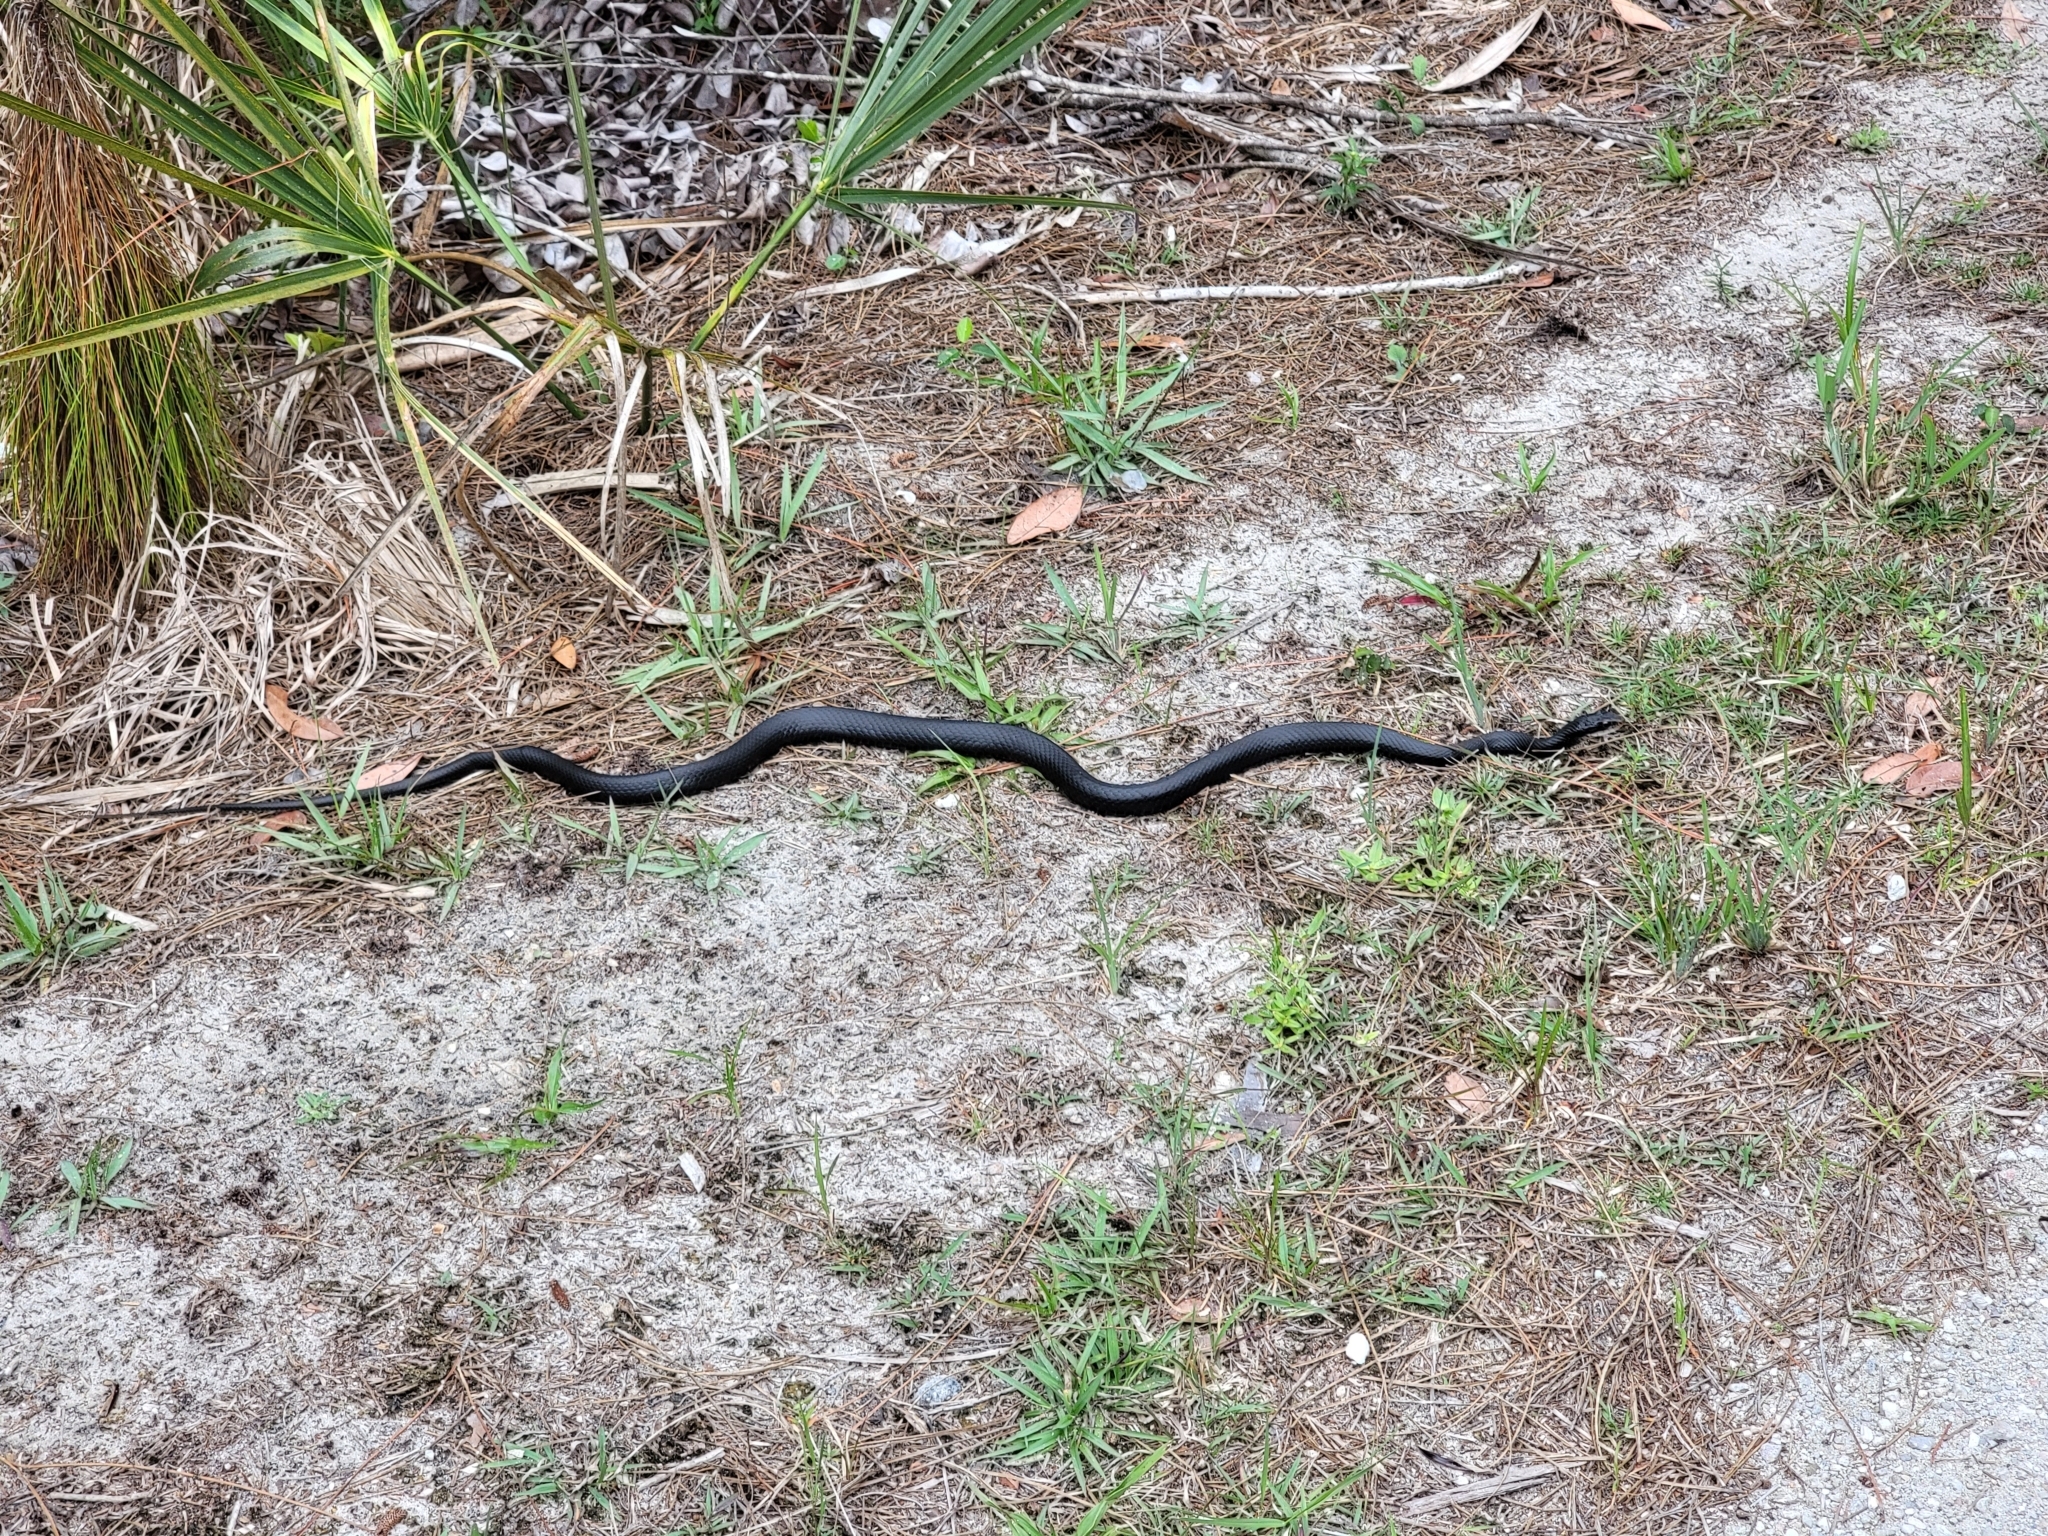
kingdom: Animalia
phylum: Chordata
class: Squamata
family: Colubridae
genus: Coluber
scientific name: Coluber constrictor
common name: Eastern racer
